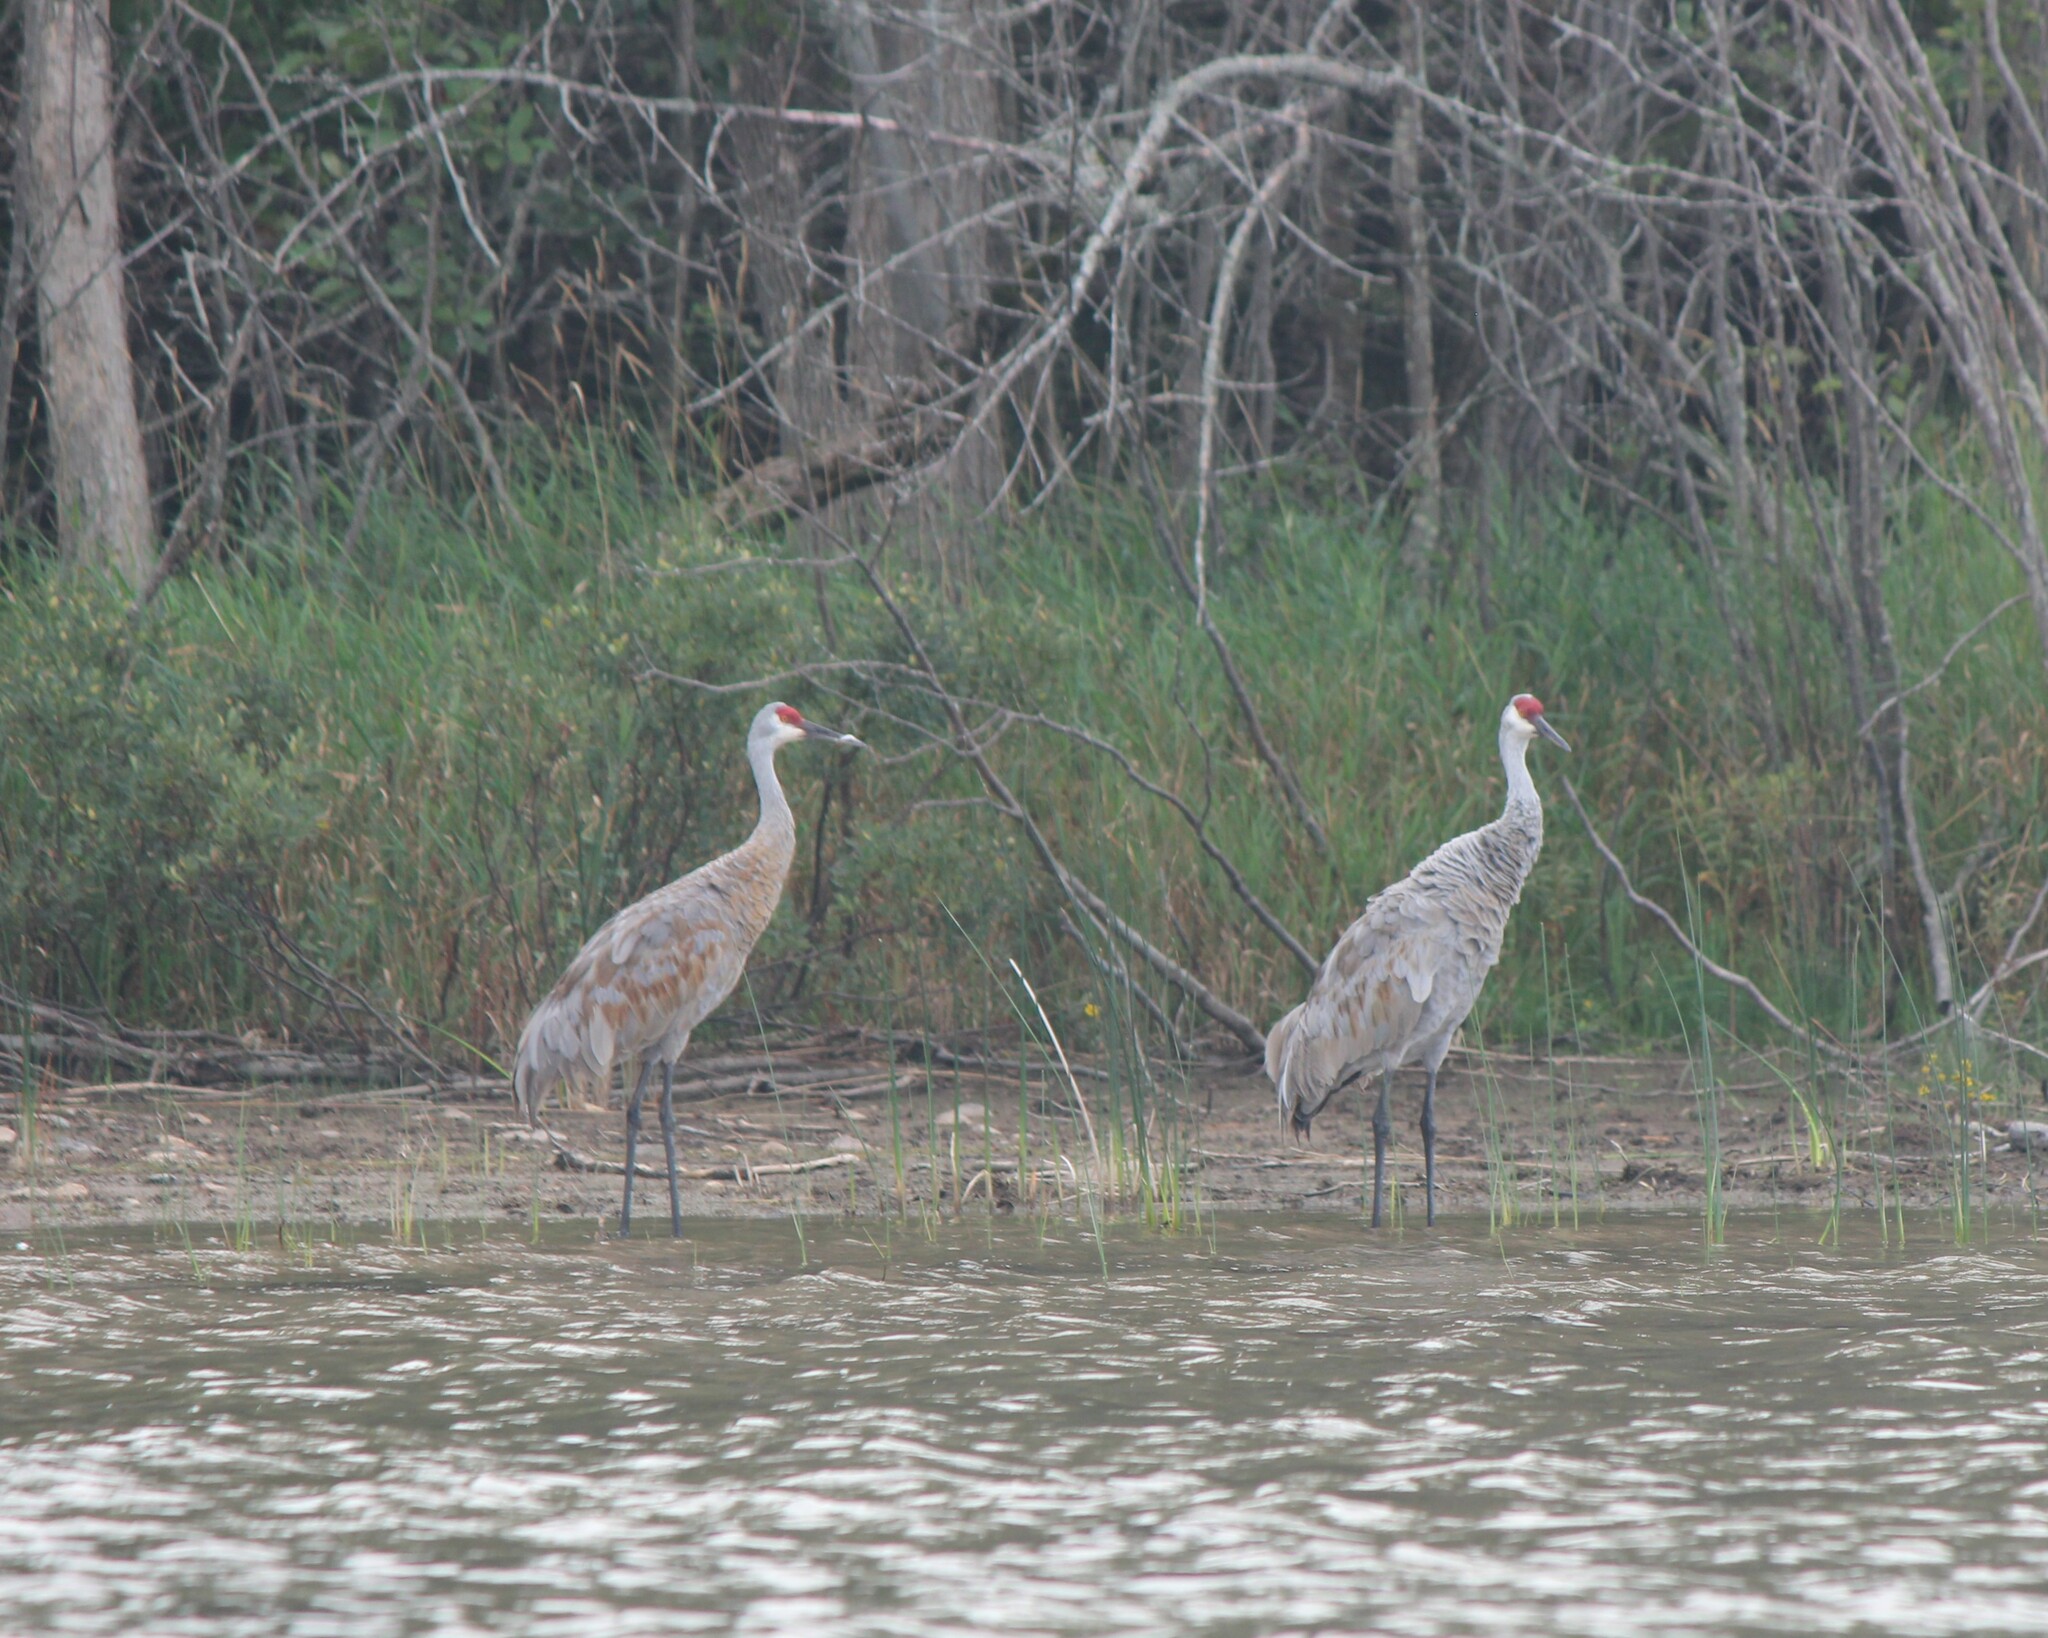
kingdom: Animalia
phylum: Chordata
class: Aves
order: Gruiformes
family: Gruidae
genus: Grus
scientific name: Grus canadensis
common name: Sandhill crane
